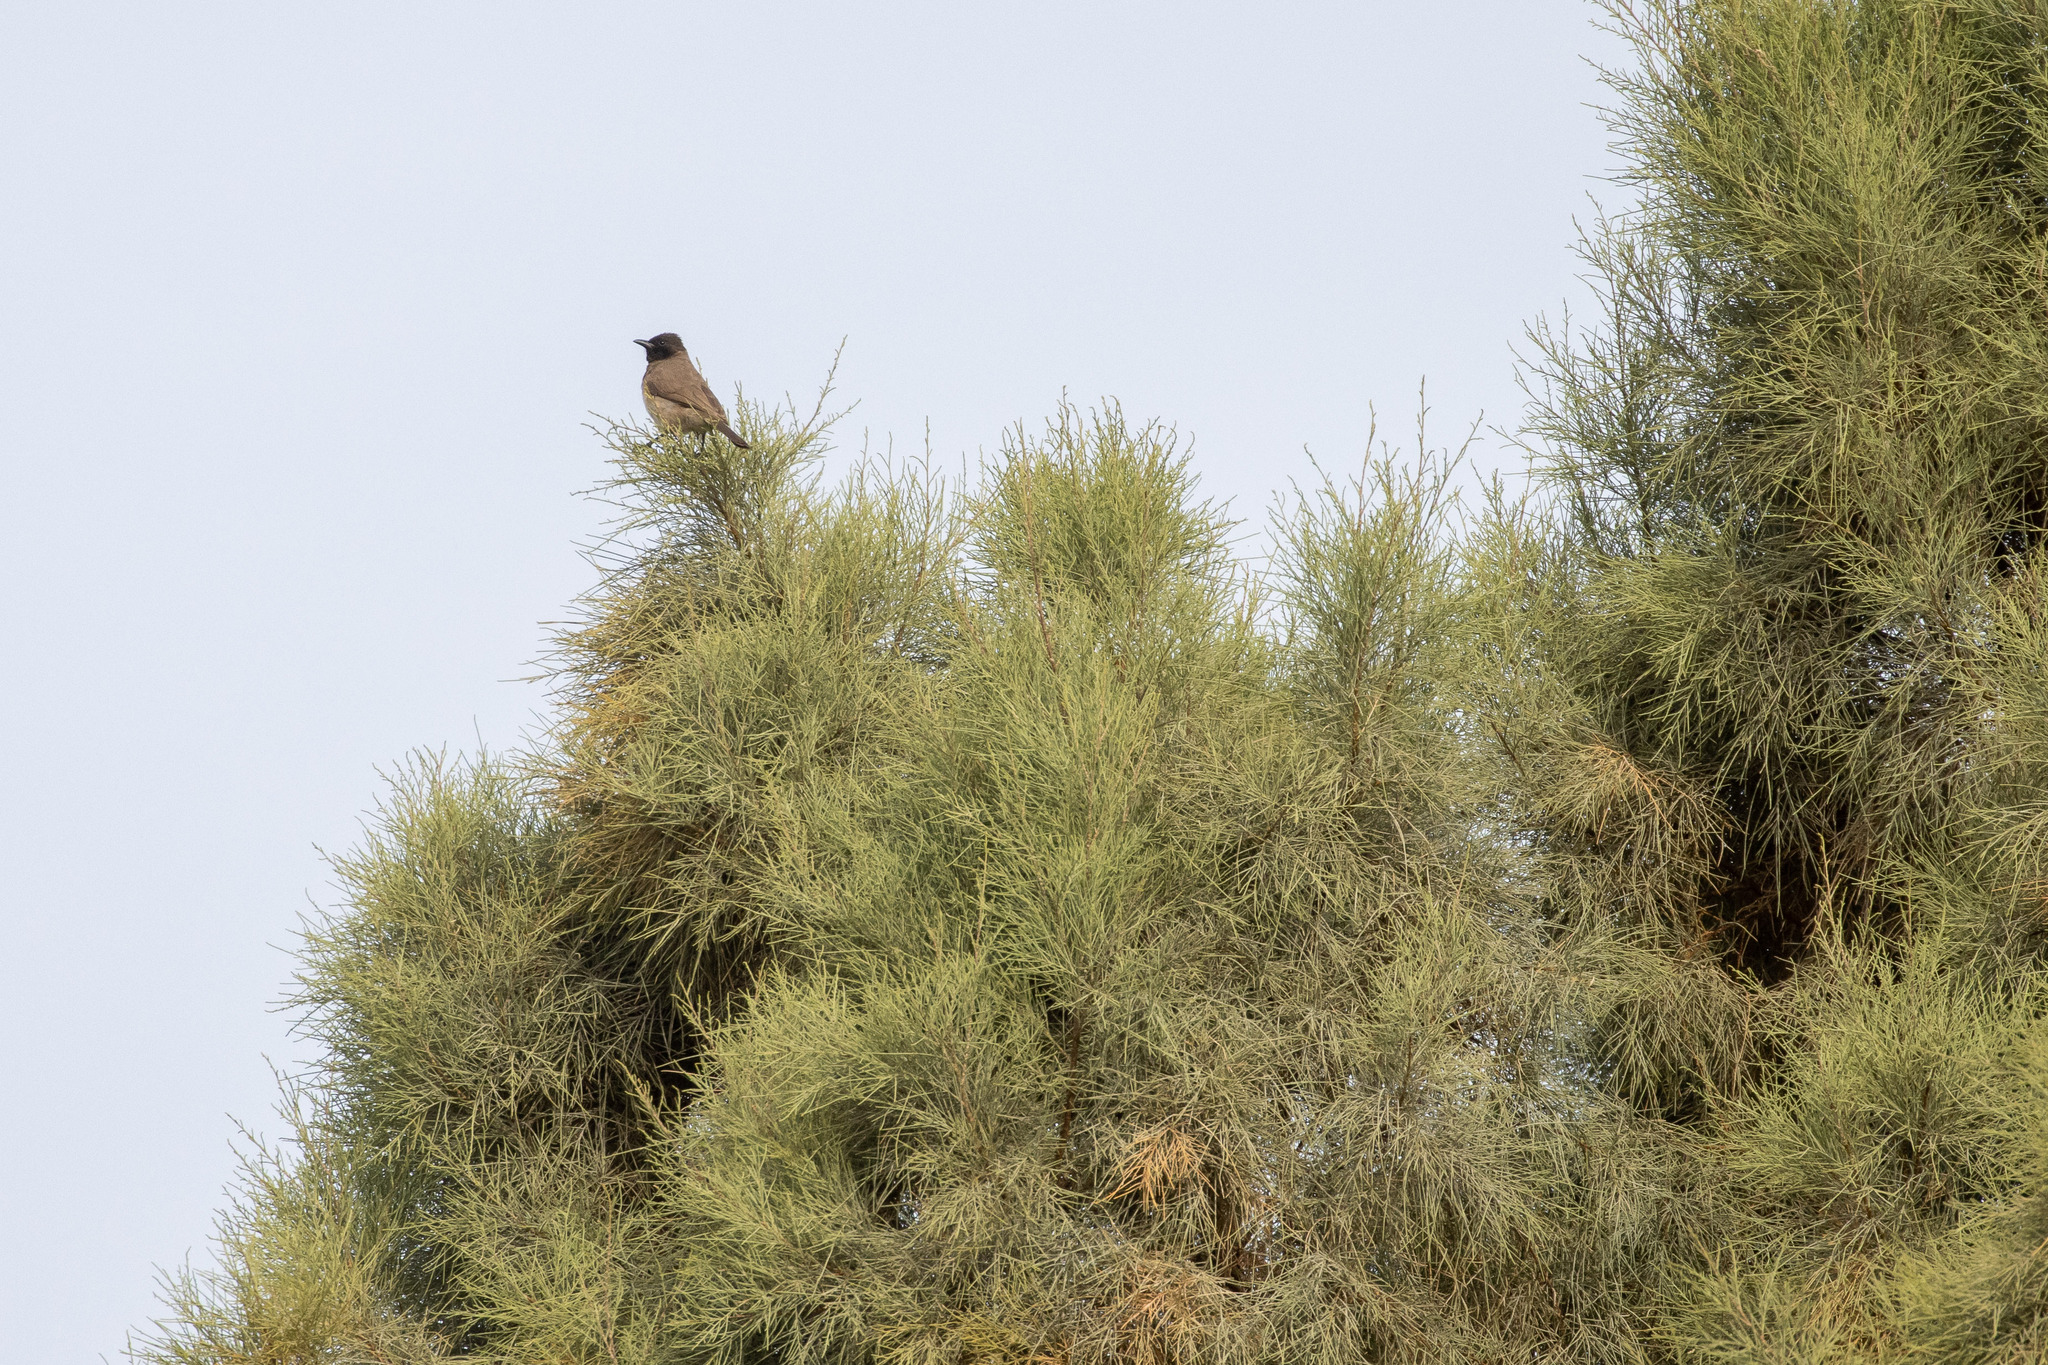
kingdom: Animalia
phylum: Chordata
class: Aves
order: Passeriformes
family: Pycnonotidae
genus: Pycnonotus
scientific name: Pycnonotus barbatus
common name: Common bulbul
